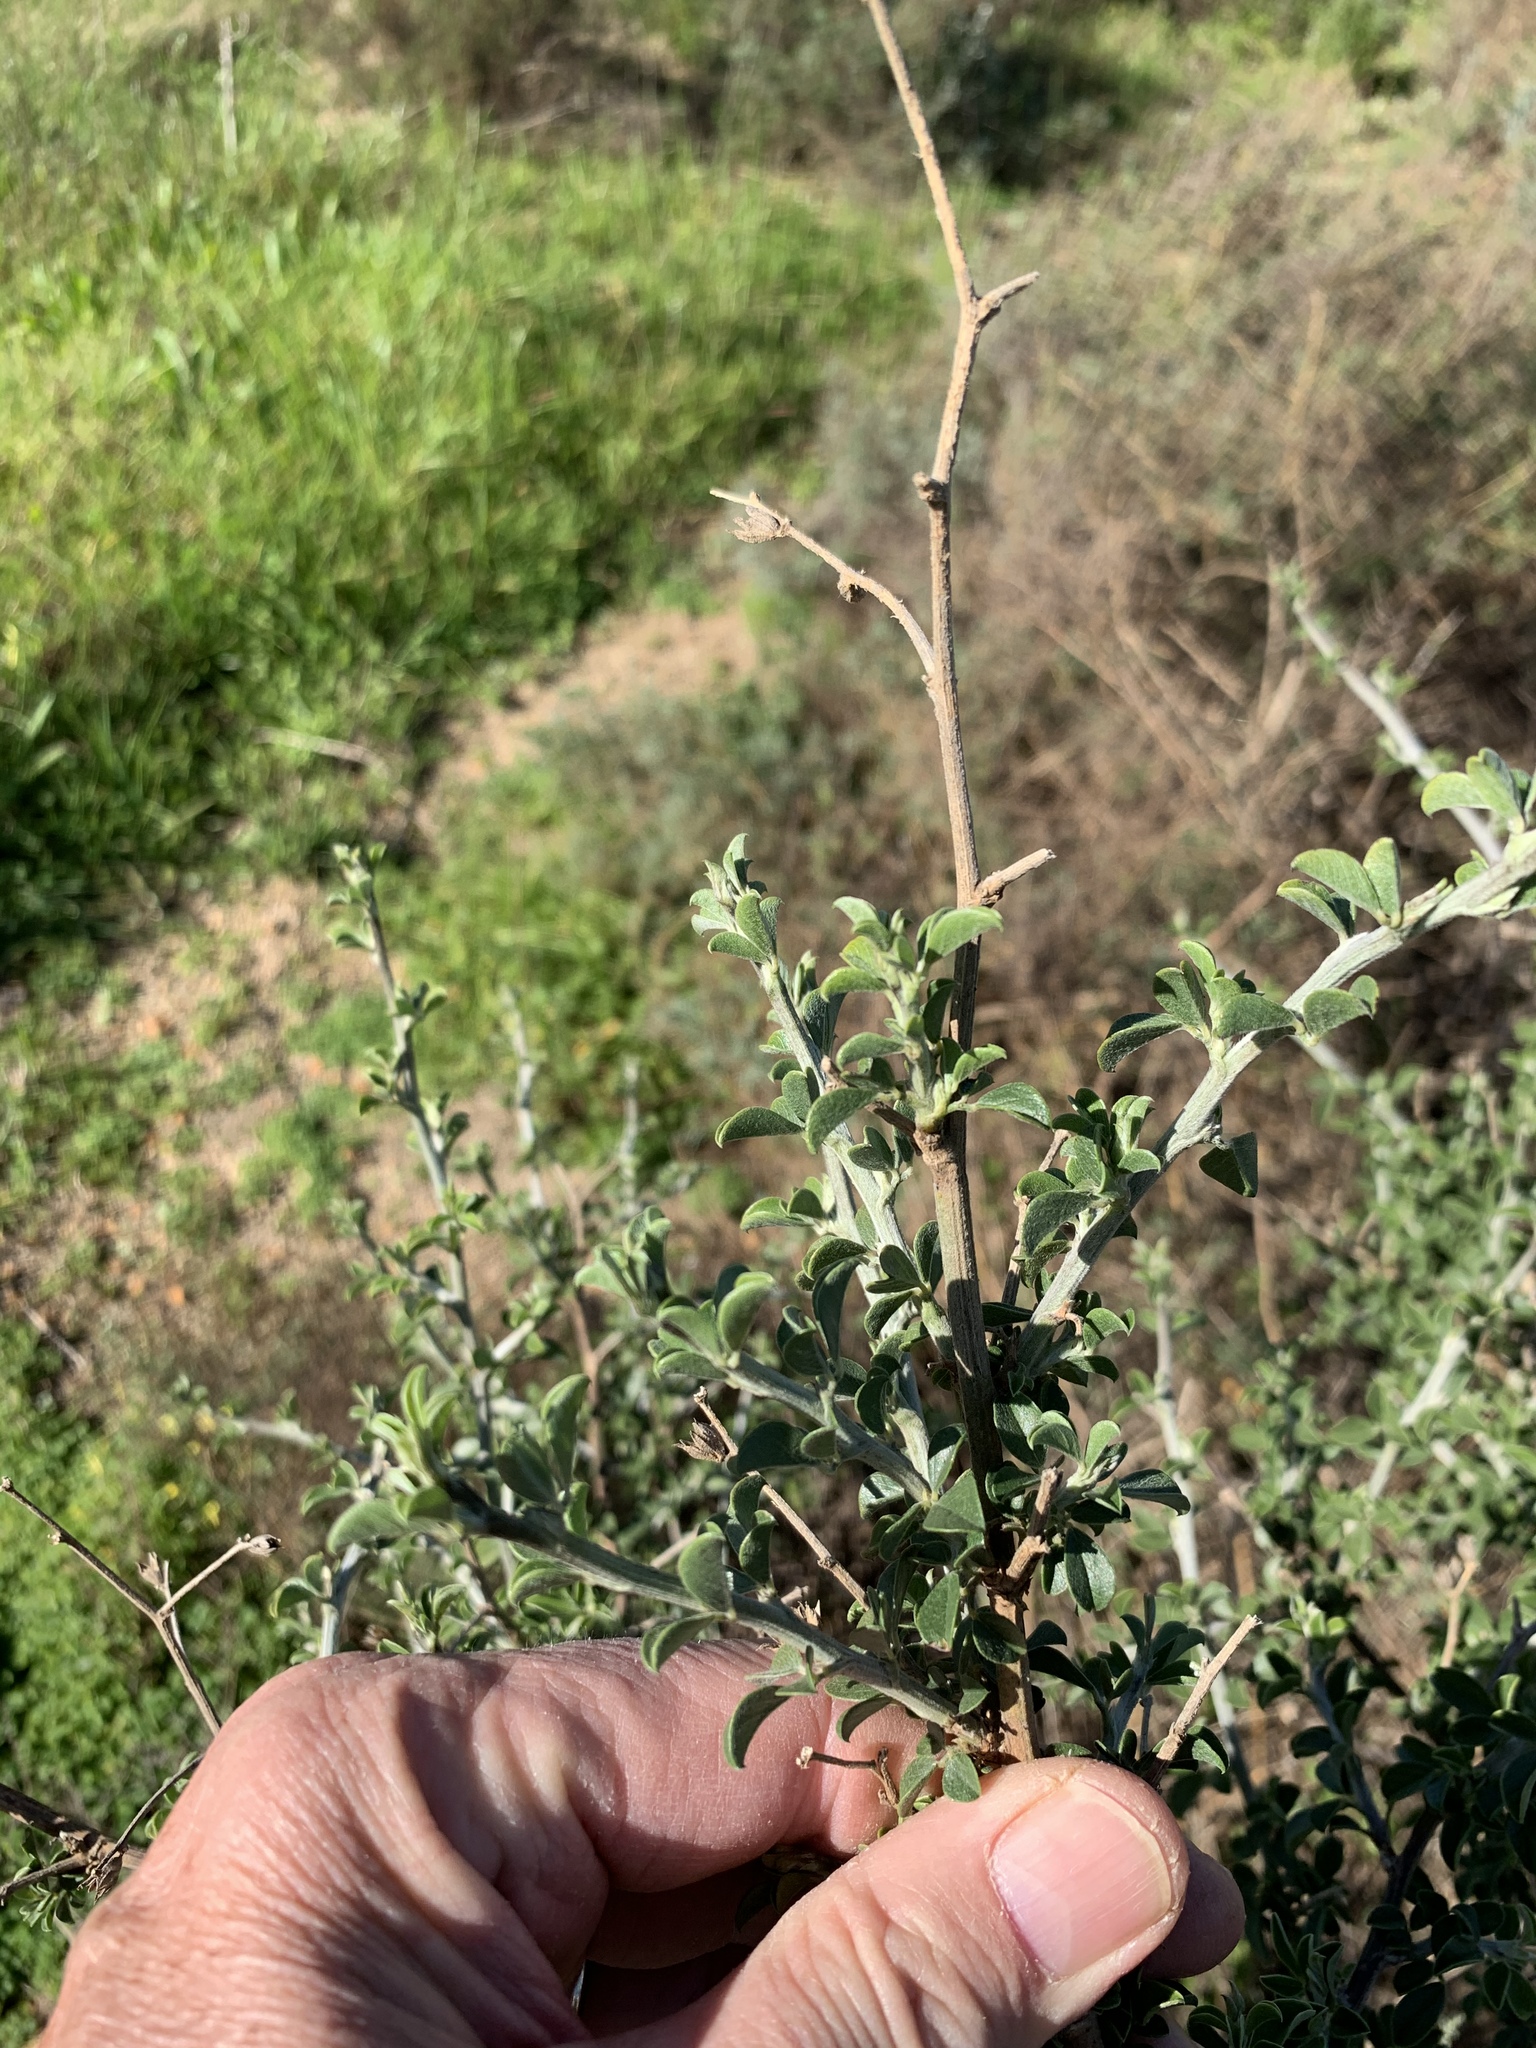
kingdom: Plantae
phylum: Tracheophyta
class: Magnoliopsida
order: Fabales
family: Fabaceae
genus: Psoralea
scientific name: Psoralea hirta
